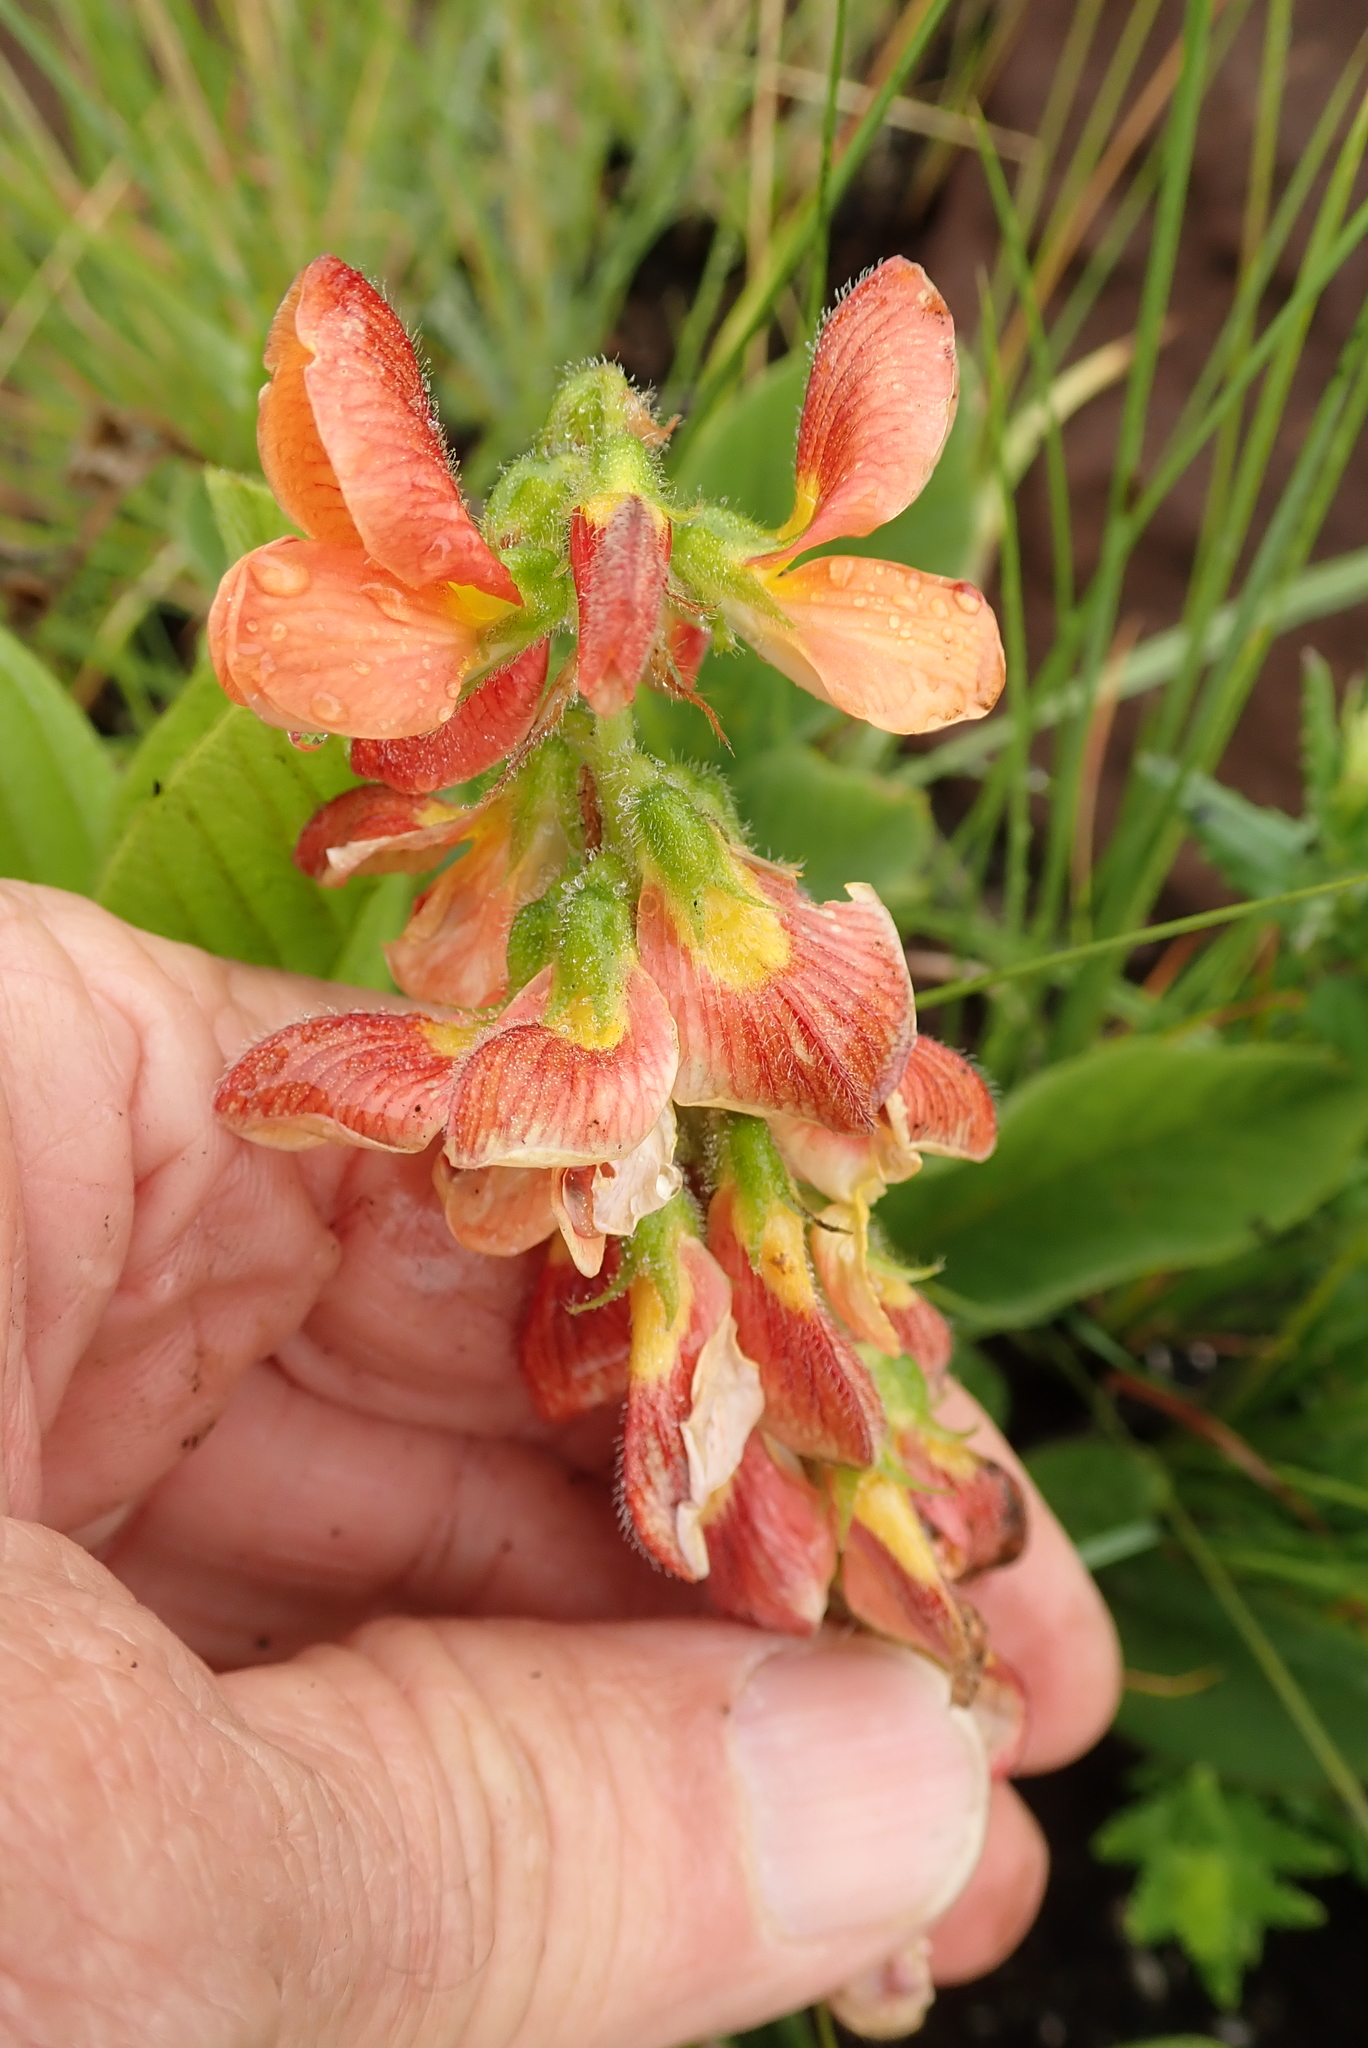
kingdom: Plantae
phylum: Tracheophyta
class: Magnoliopsida
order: Fabales
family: Fabaceae
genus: Eriosema
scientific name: Eriosema distinctum
